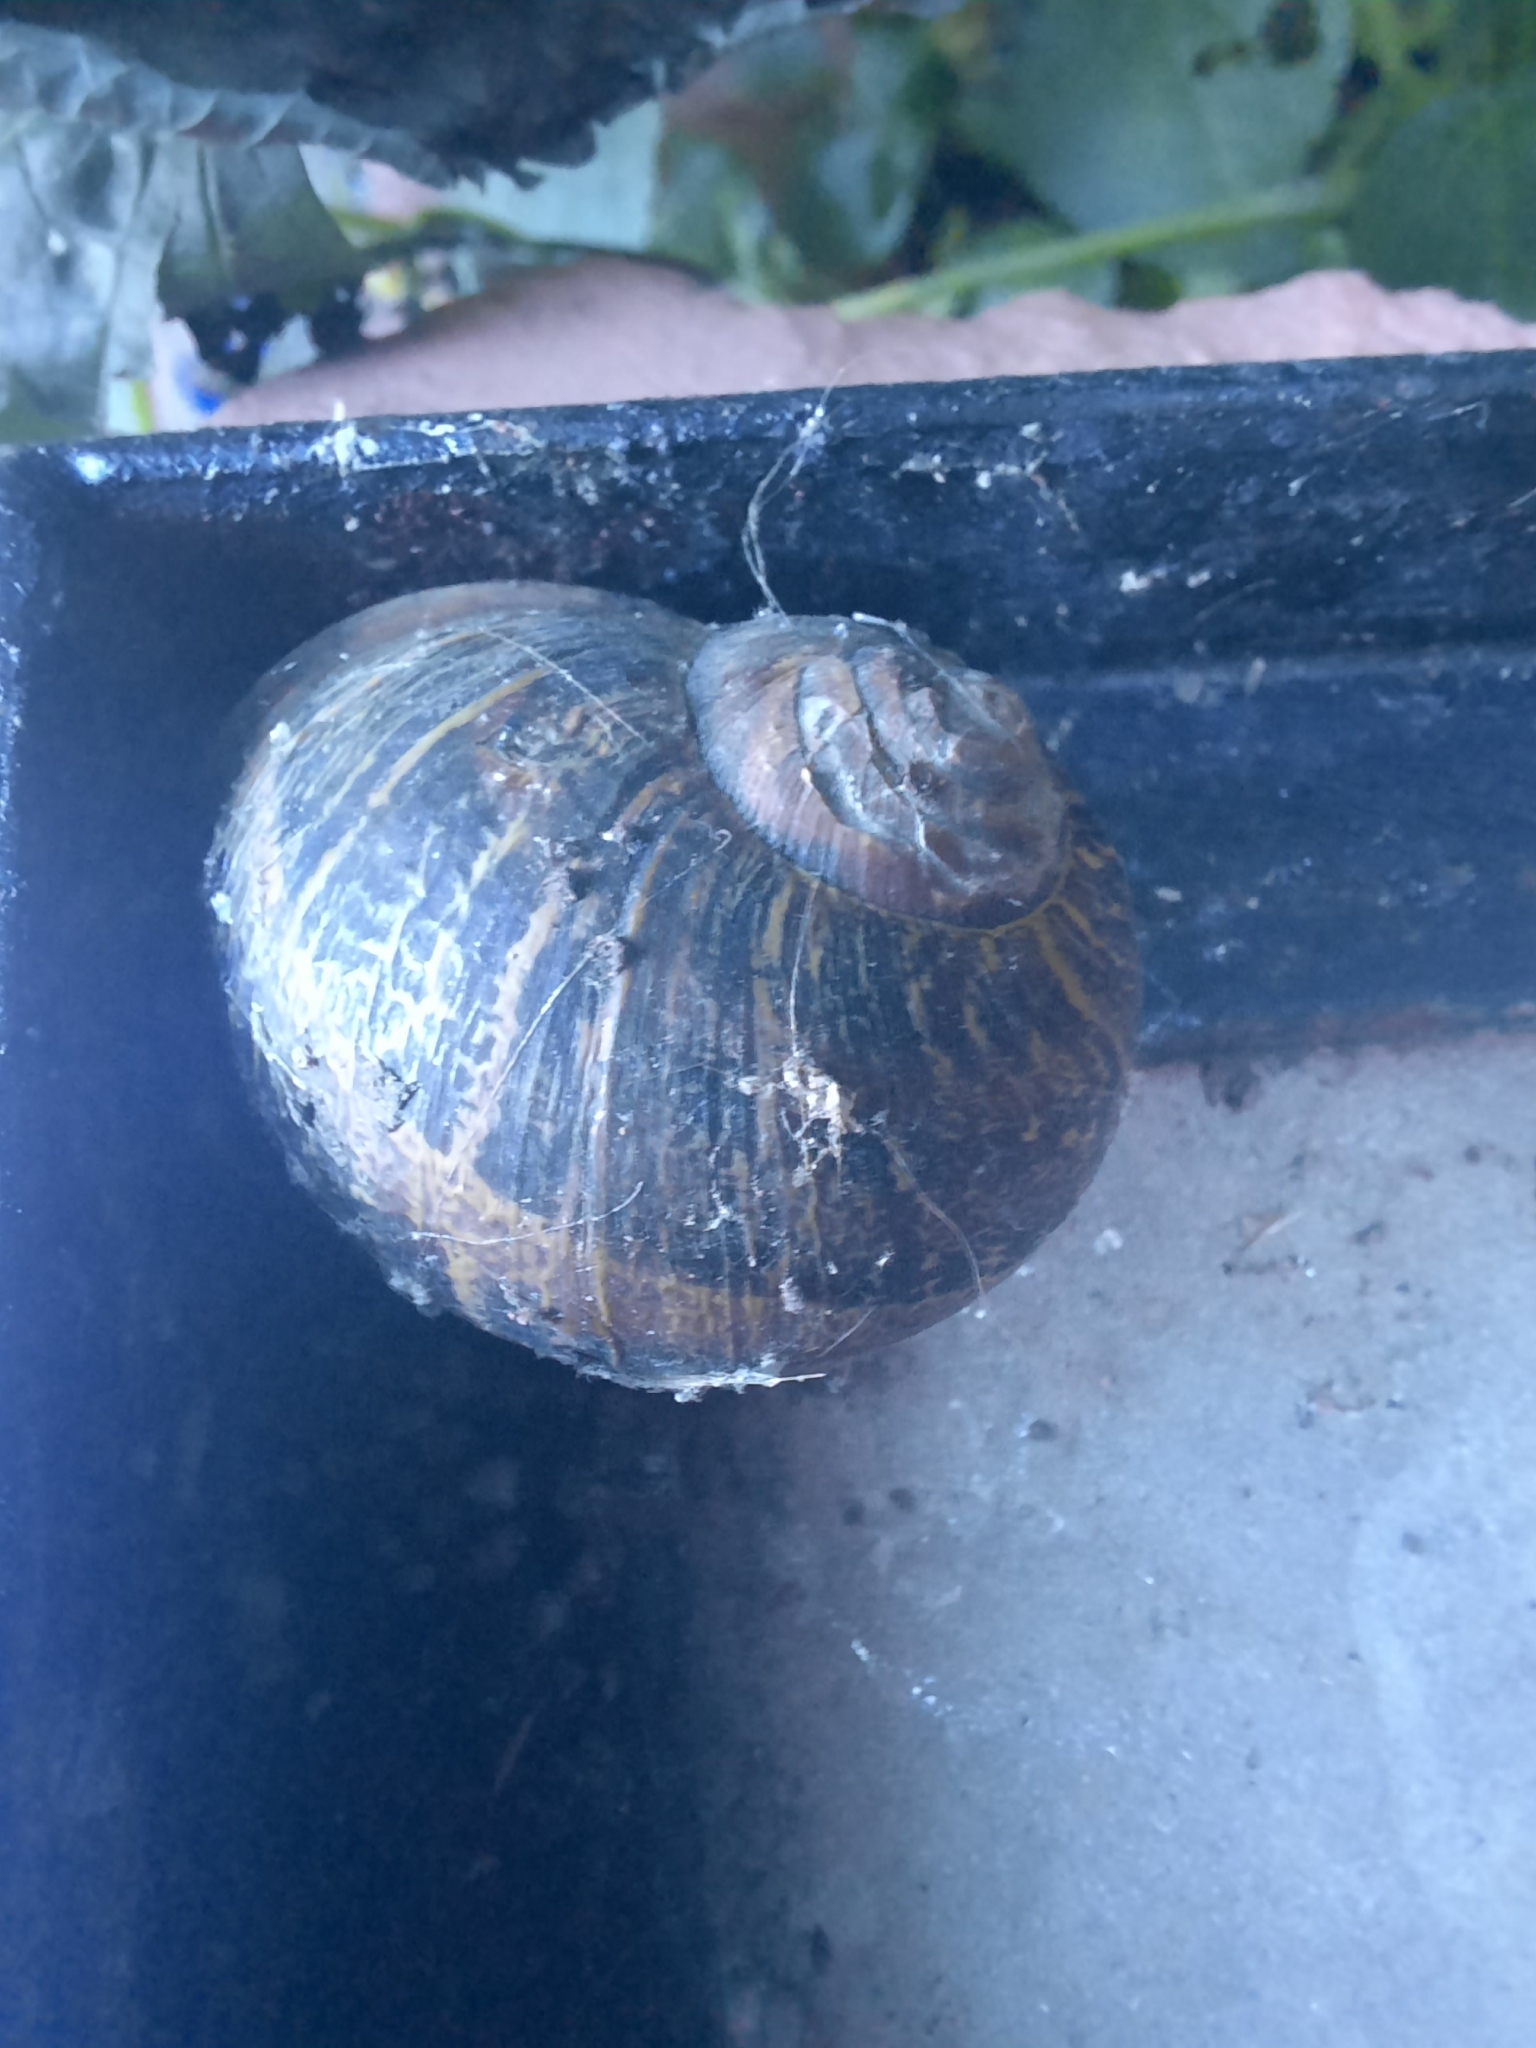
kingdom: Animalia
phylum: Mollusca
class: Gastropoda
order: Stylommatophora
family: Helicidae
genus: Cornu
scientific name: Cornu aspersum
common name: Brown garden snail
